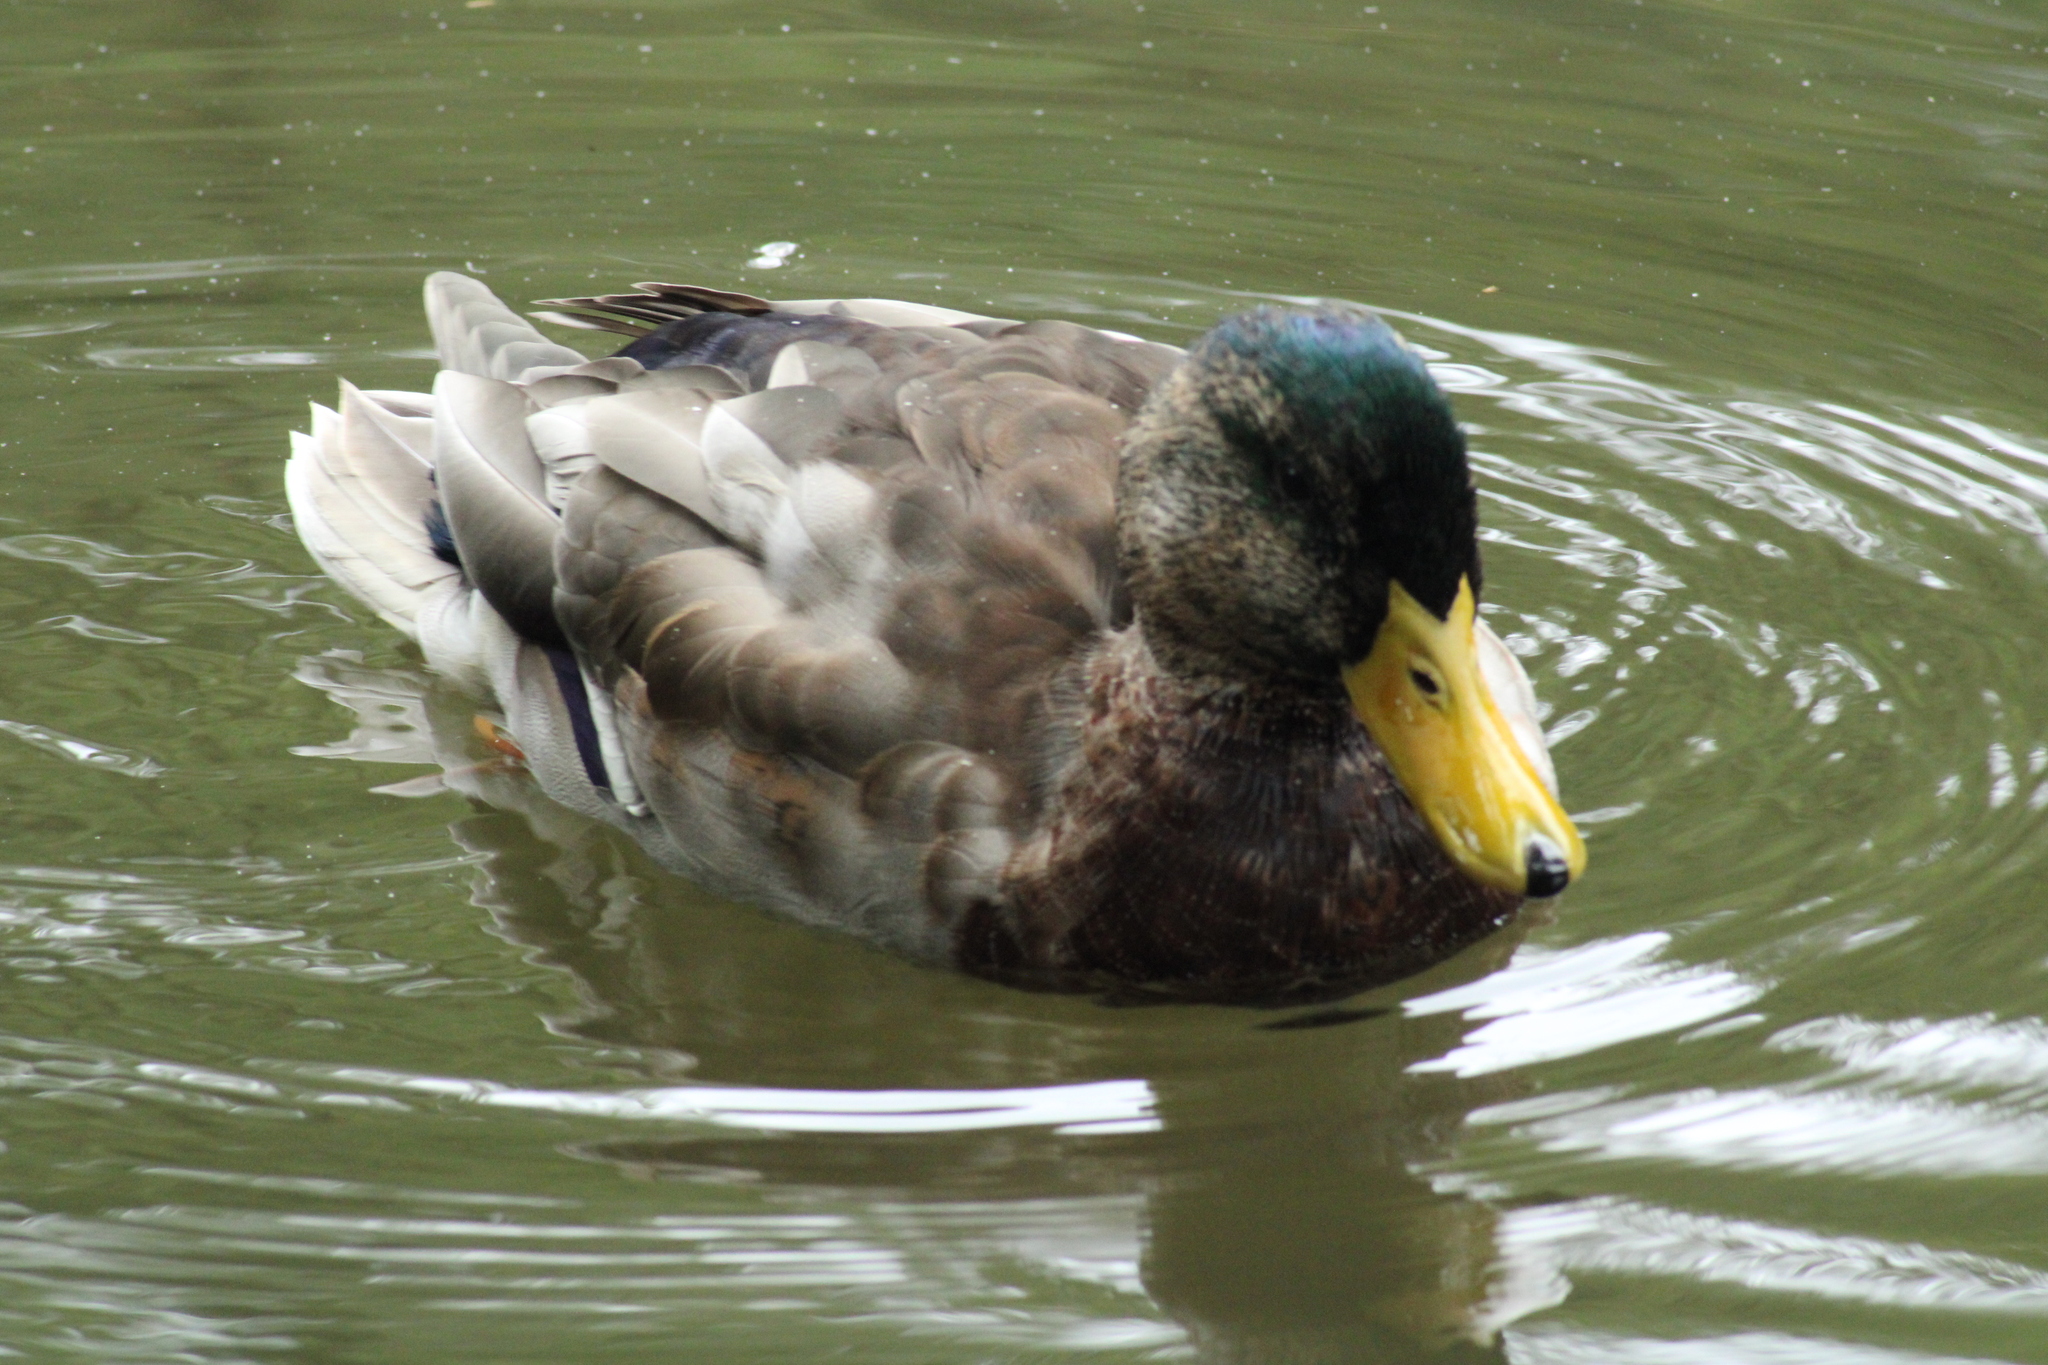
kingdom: Animalia
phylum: Chordata
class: Aves
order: Anseriformes
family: Anatidae
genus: Anas
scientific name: Anas platyrhynchos
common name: Mallard
